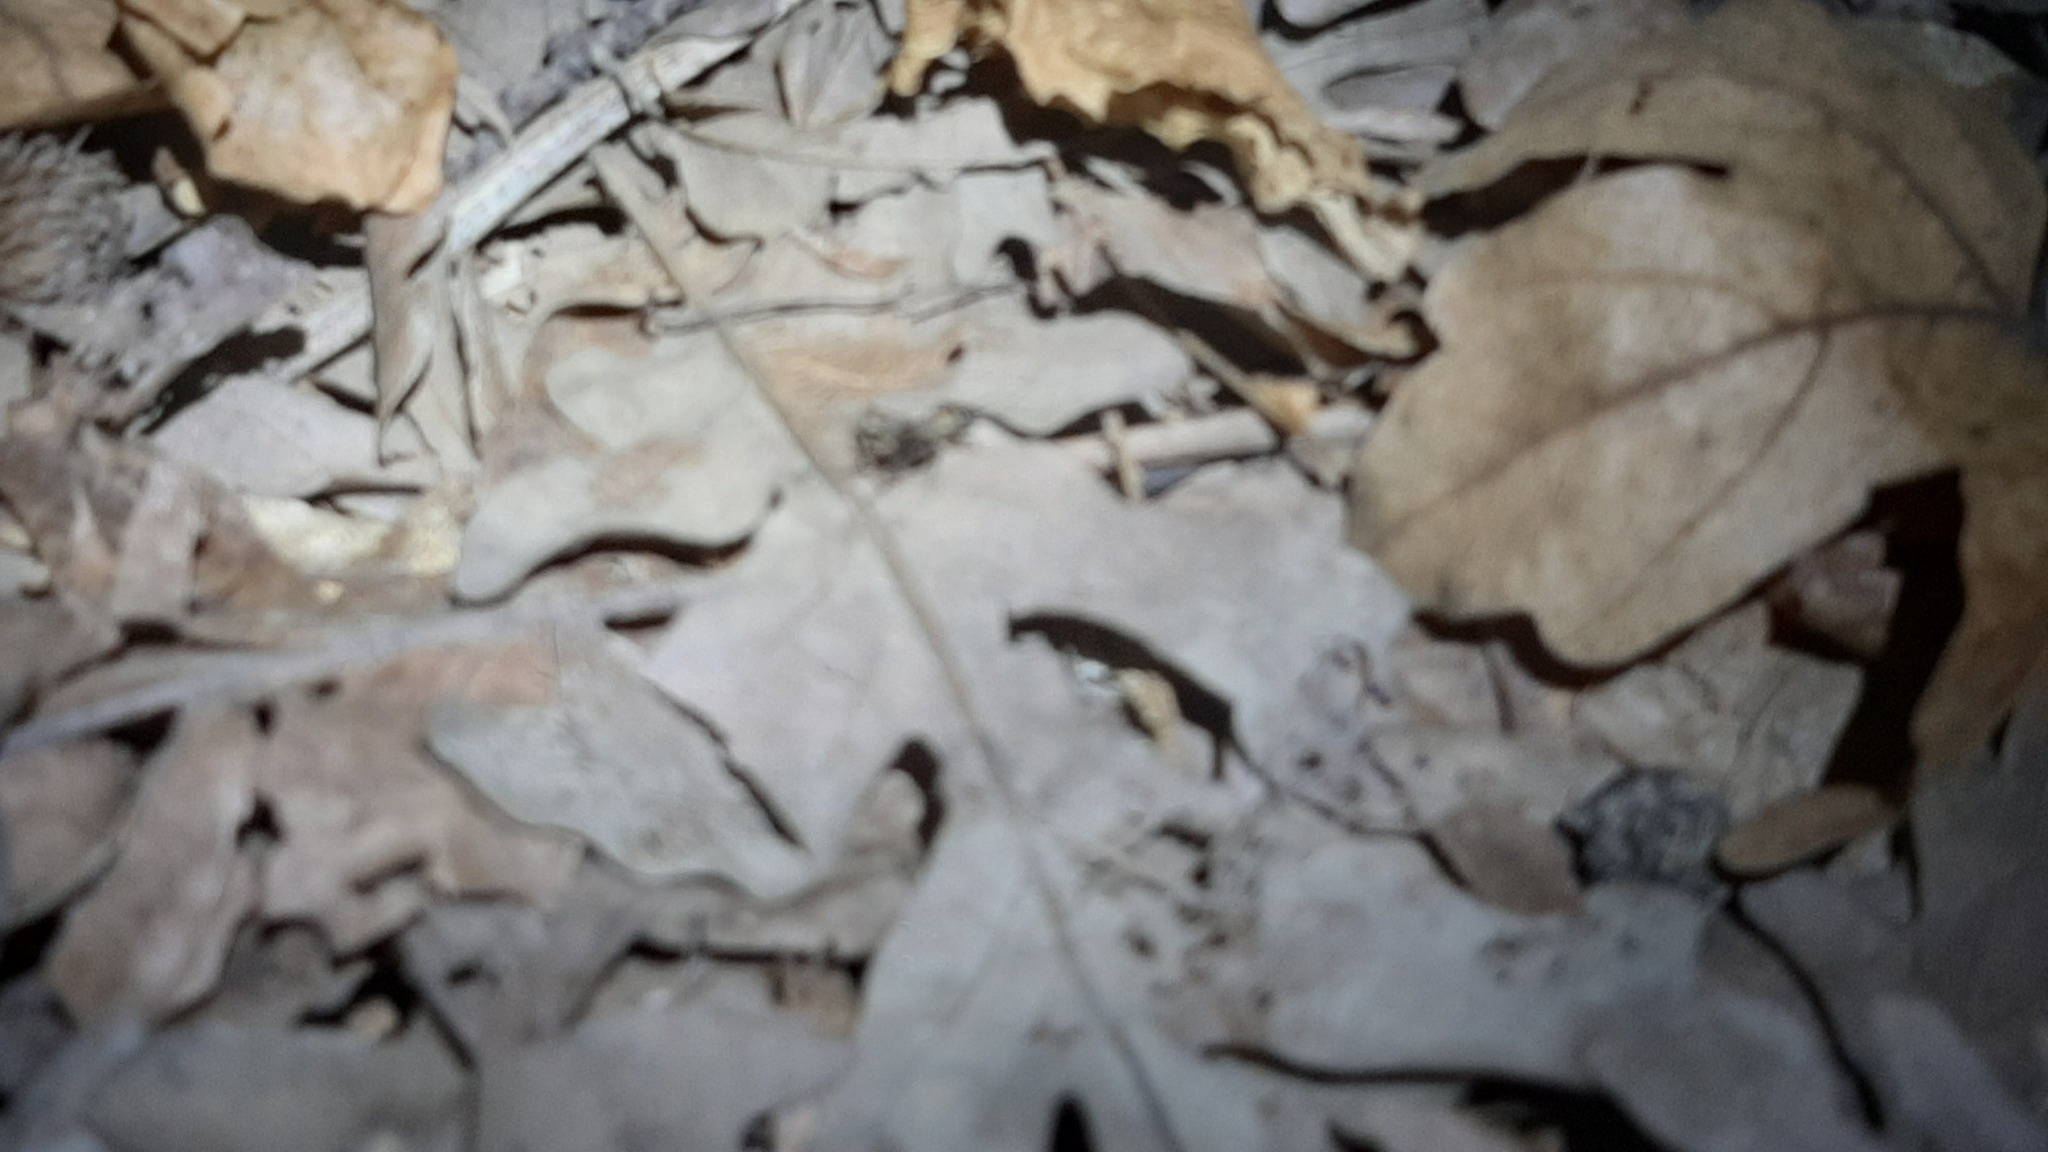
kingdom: Animalia
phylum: Arthropoda
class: Insecta
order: Orthoptera
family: Trigonidiidae
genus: Nemobius
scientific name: Nemobius sylvestris
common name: Wood-cricket
